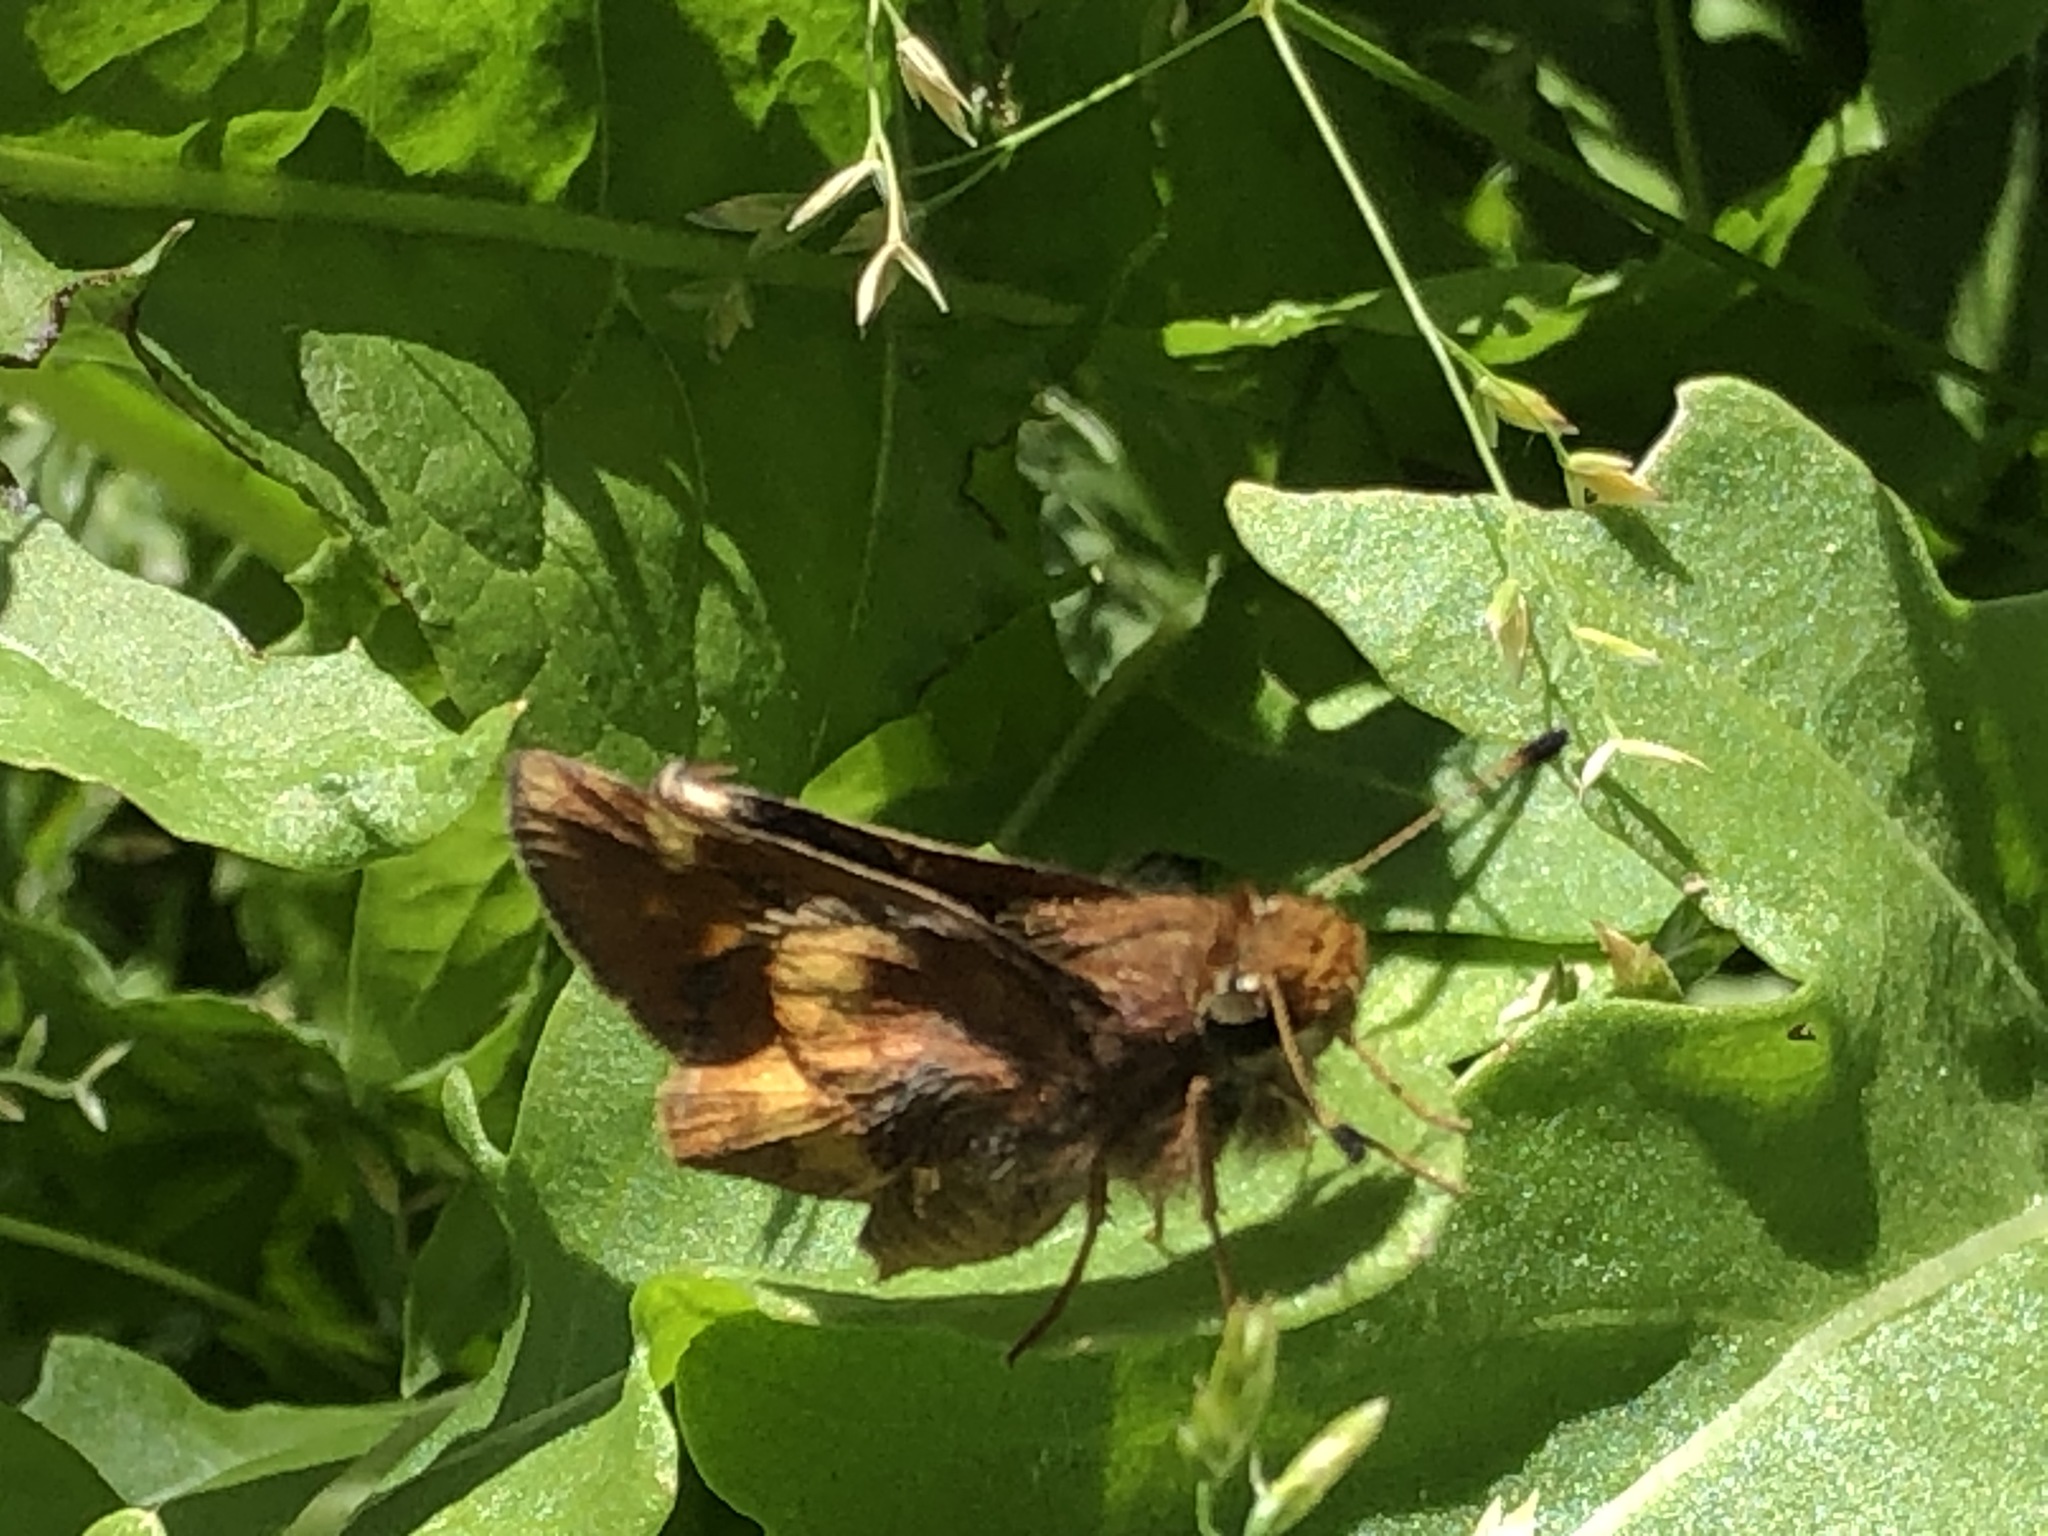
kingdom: Animalia
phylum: Arthropoda
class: Insecta
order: Lepidoptera
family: Hesperiidae
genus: Lon
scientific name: Lon melane
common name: Umber skipper
